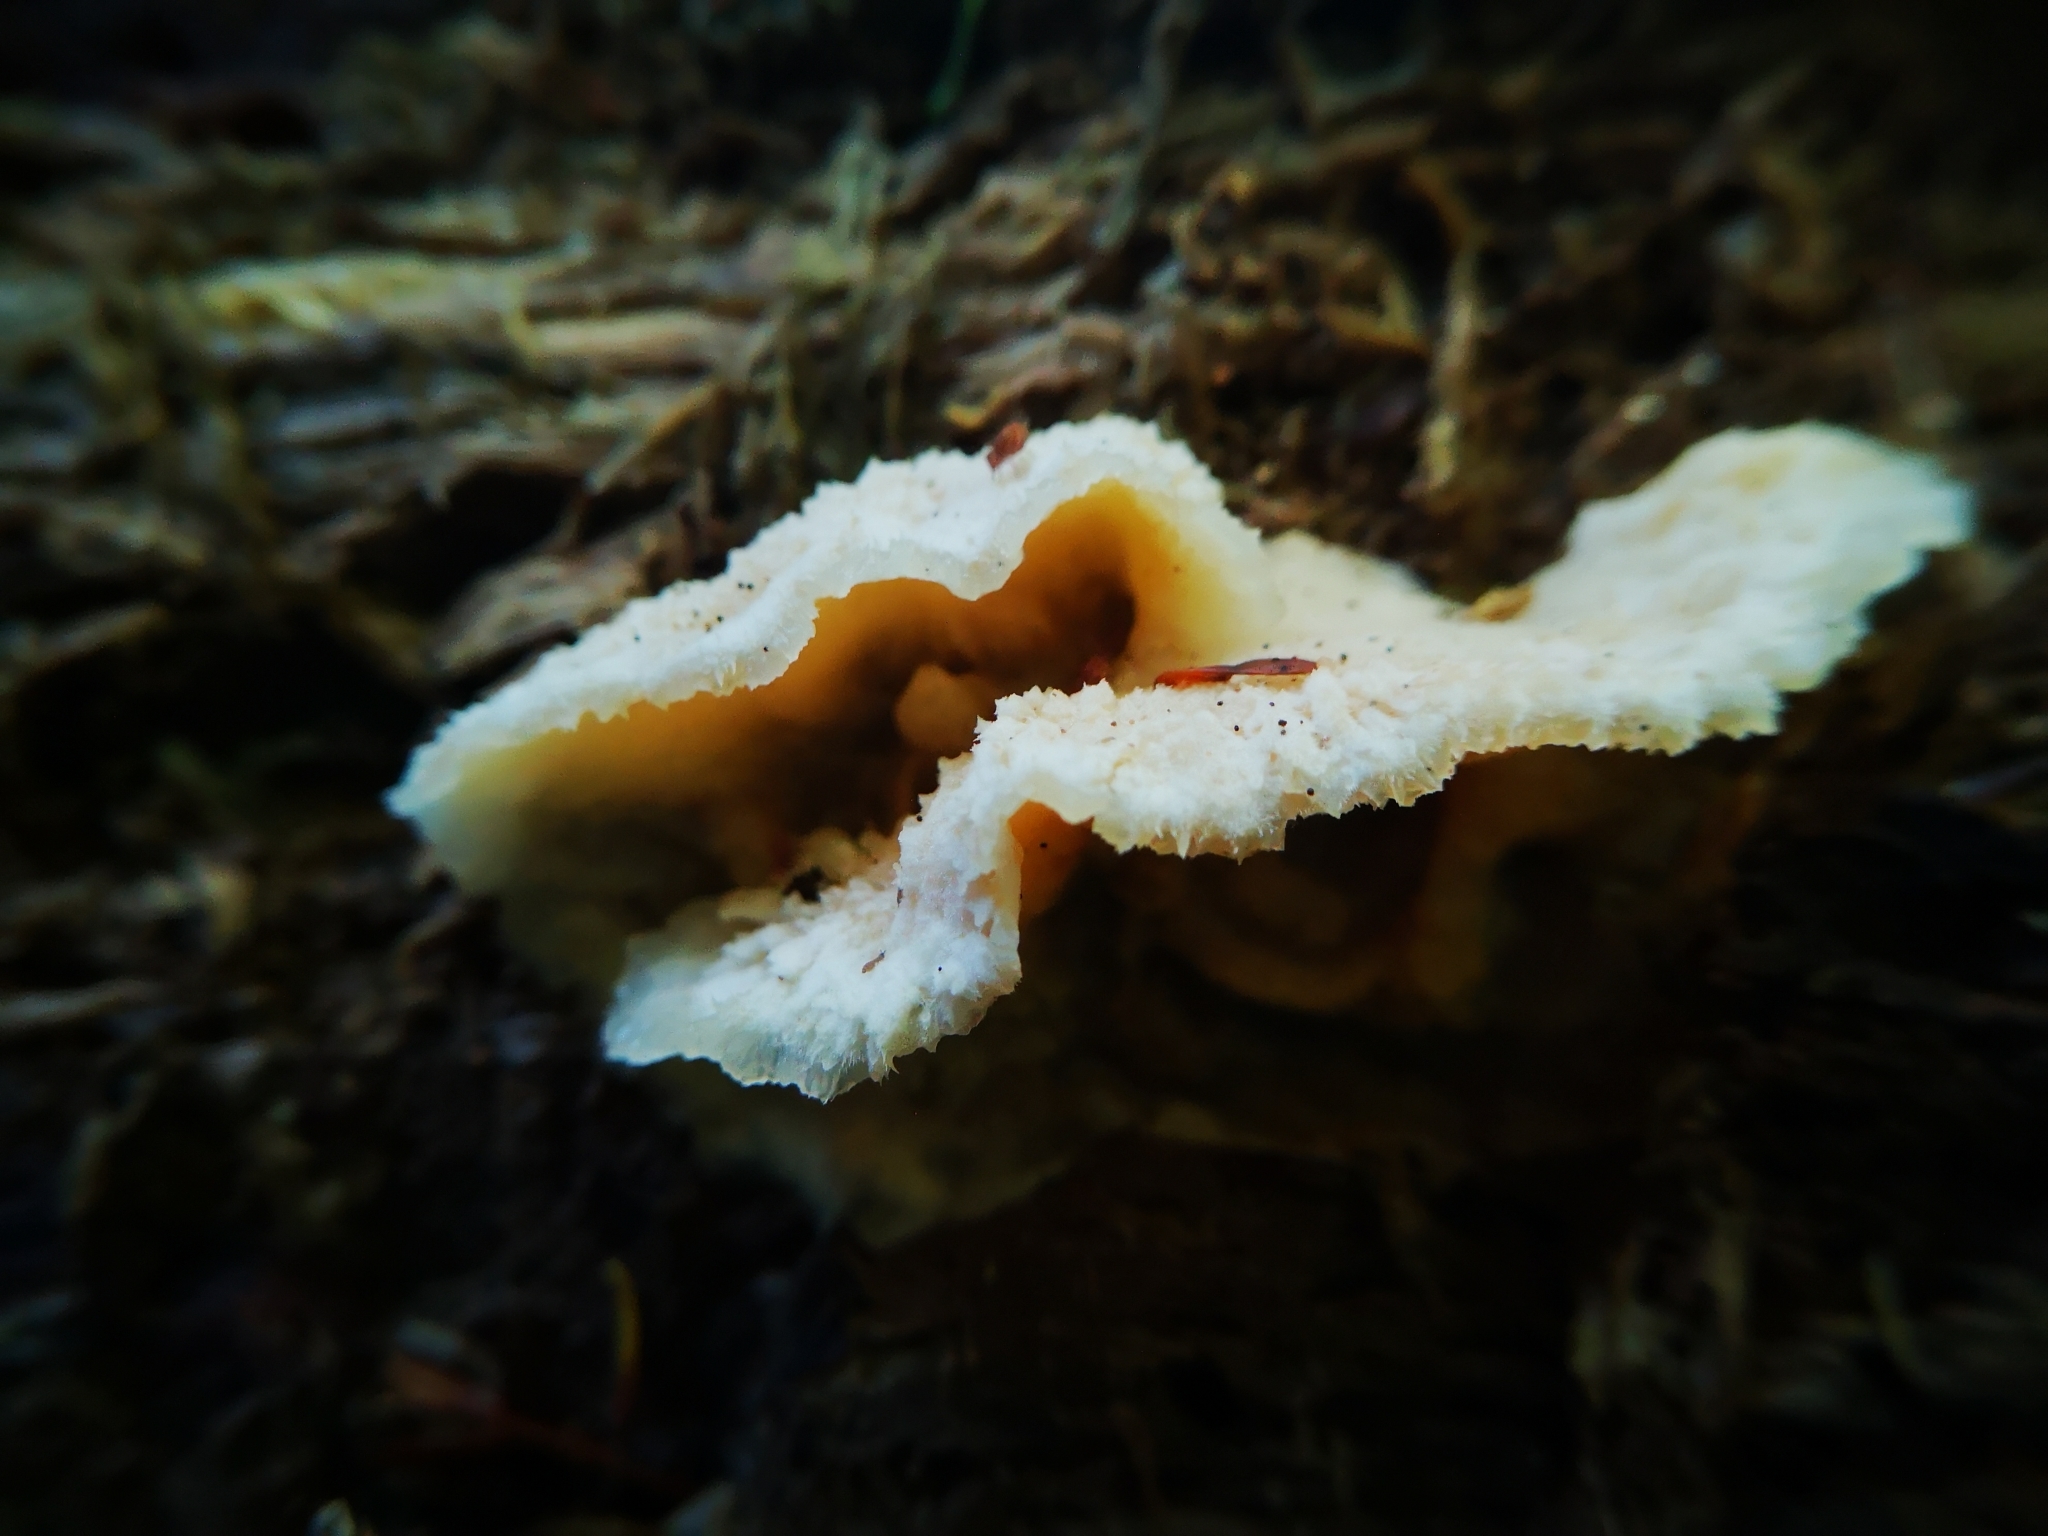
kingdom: Fungi
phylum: Basidiomycota
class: Agaricomycetes
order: Polyporales
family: Meruliaceae
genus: Phlebia
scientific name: Phlebia tremellosa
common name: Jelly rot
